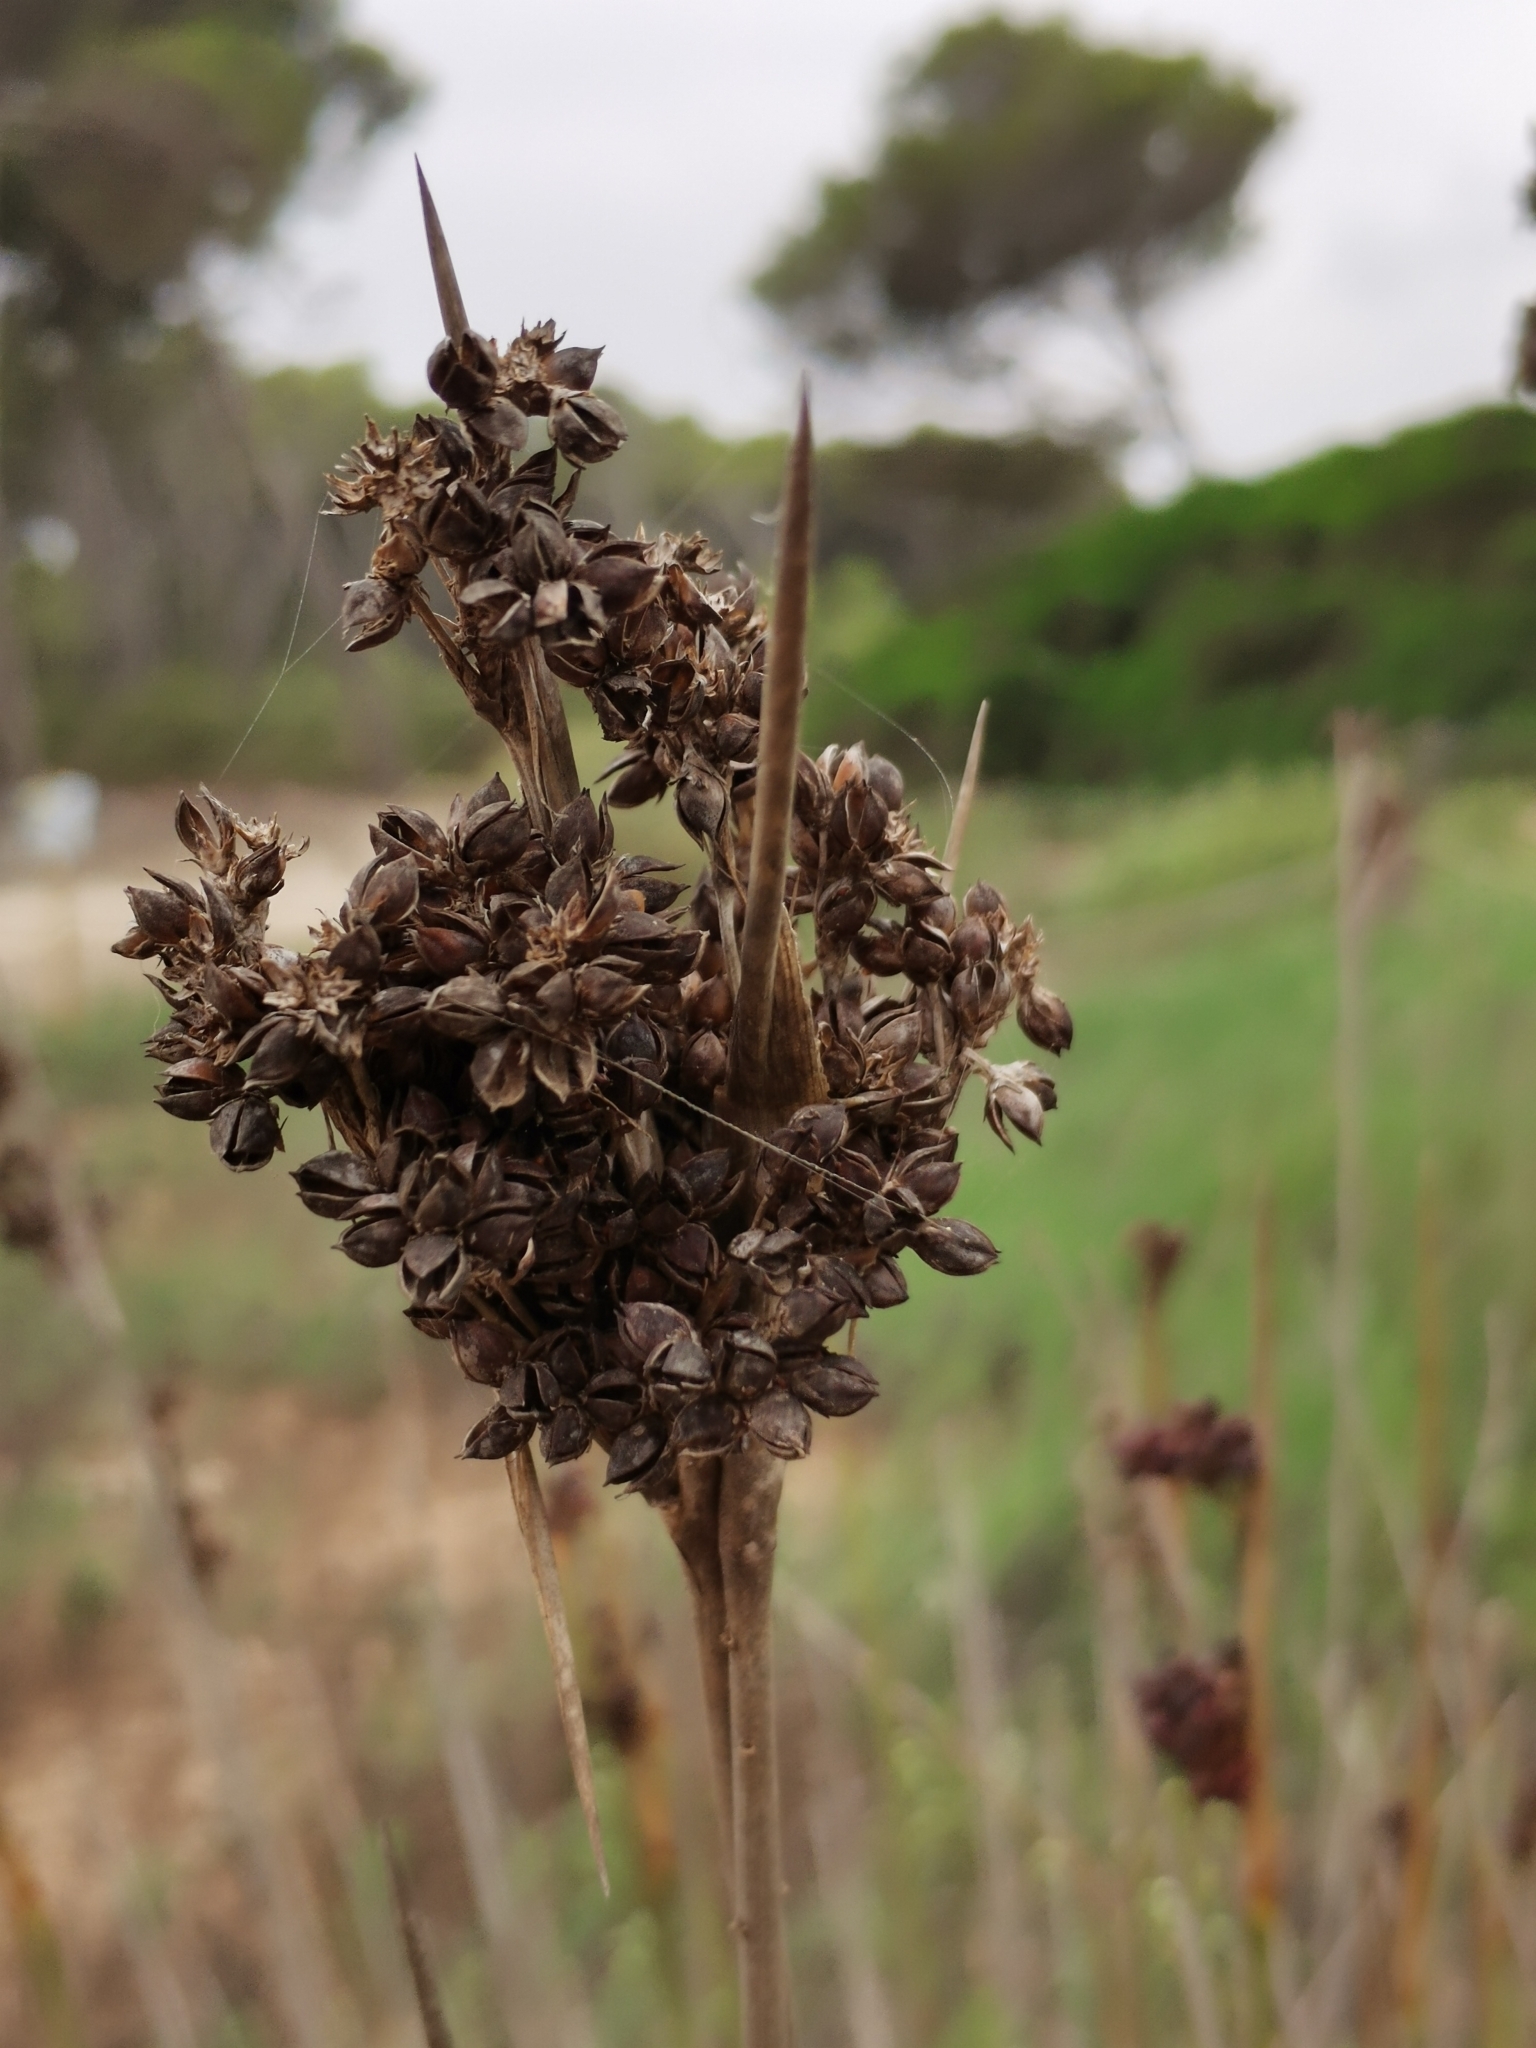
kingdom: Plantae
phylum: Tracheophyta
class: Liliopsida
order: Poales
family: Juncaceae
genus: Juncus
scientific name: Juncus acutus
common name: Sharp rush
